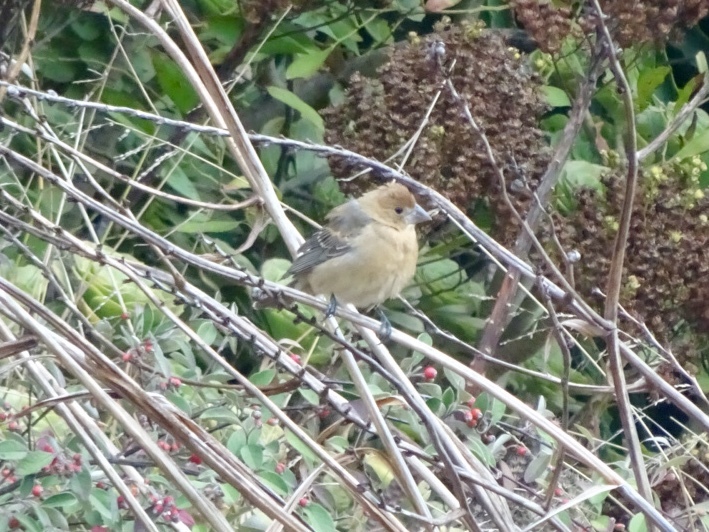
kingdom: Animalia
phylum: Chordata
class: Aves
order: Passeriformes
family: Cardinalidae
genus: Passerina
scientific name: Passerina caerulea
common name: Blue grosbeak
